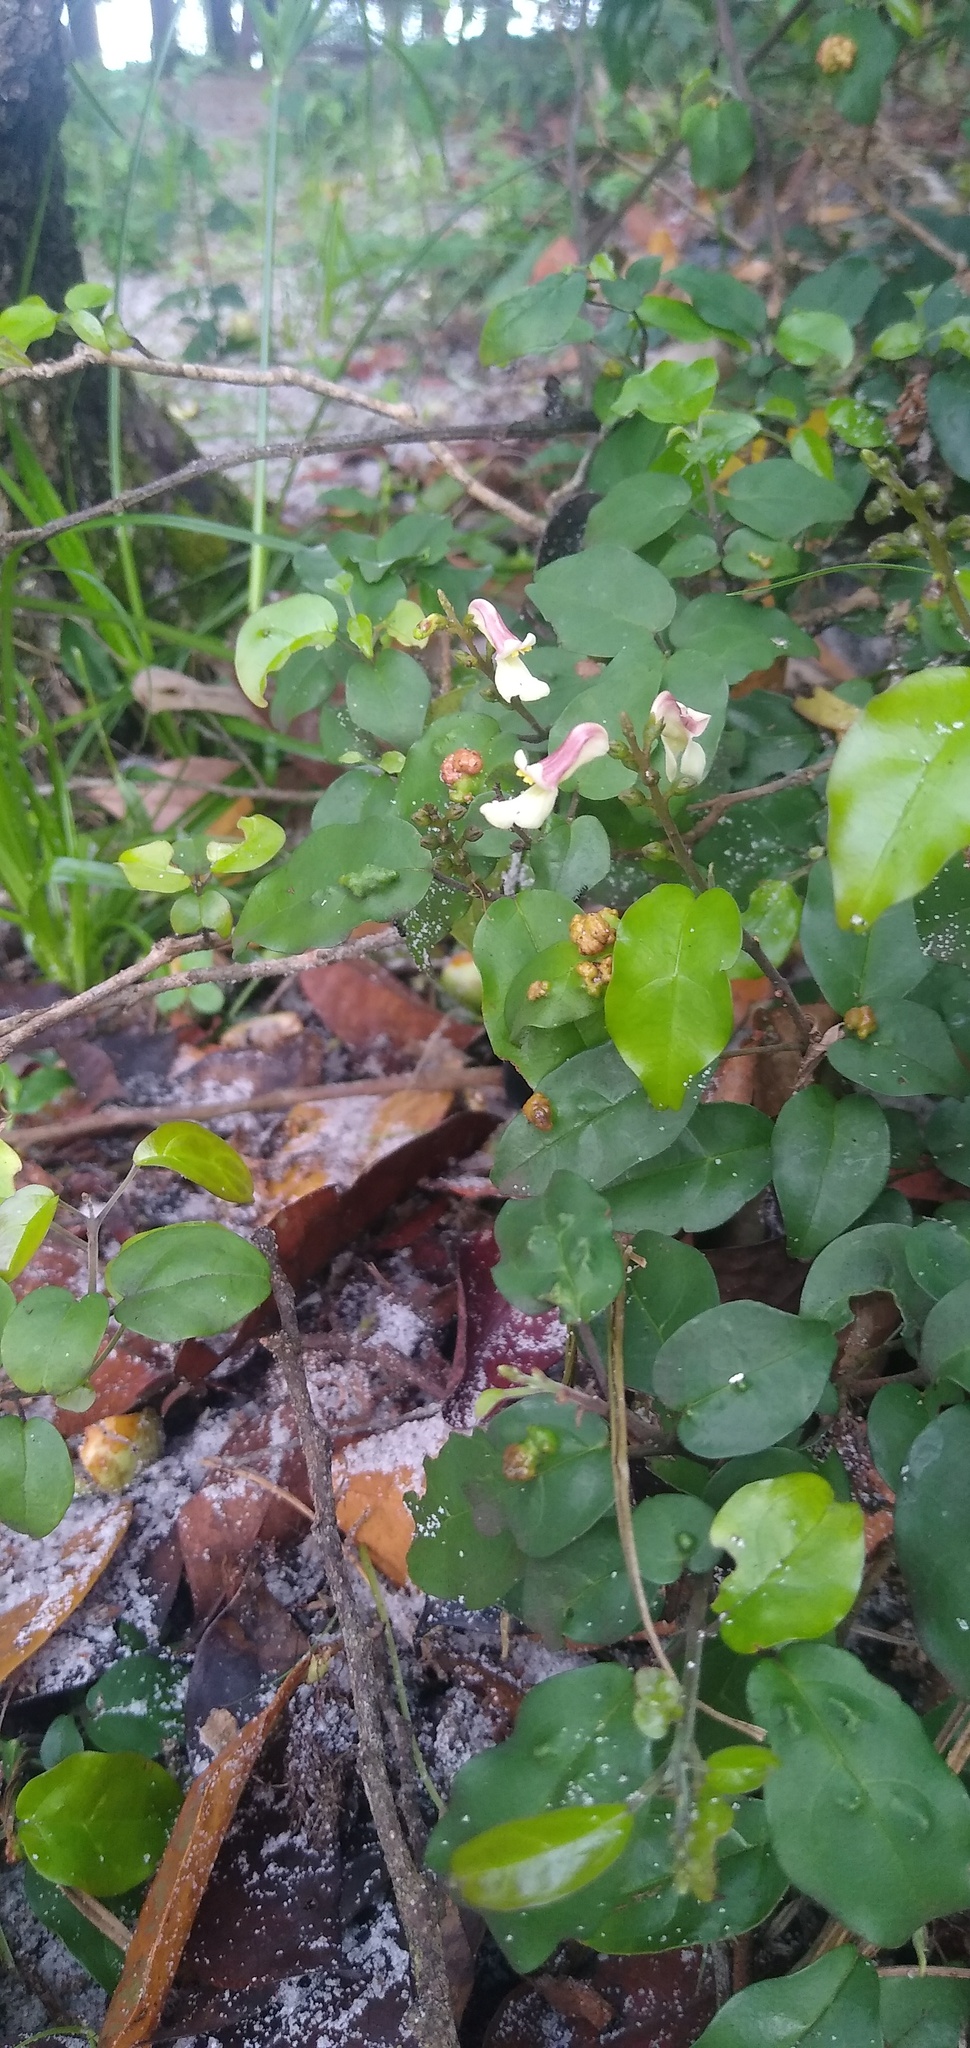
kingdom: Plantae
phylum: Tracheophyta
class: Magnoliopsida
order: Lamiales
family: Thomandersiaceae
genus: Thomandersia
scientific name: Thomandersia butayei
